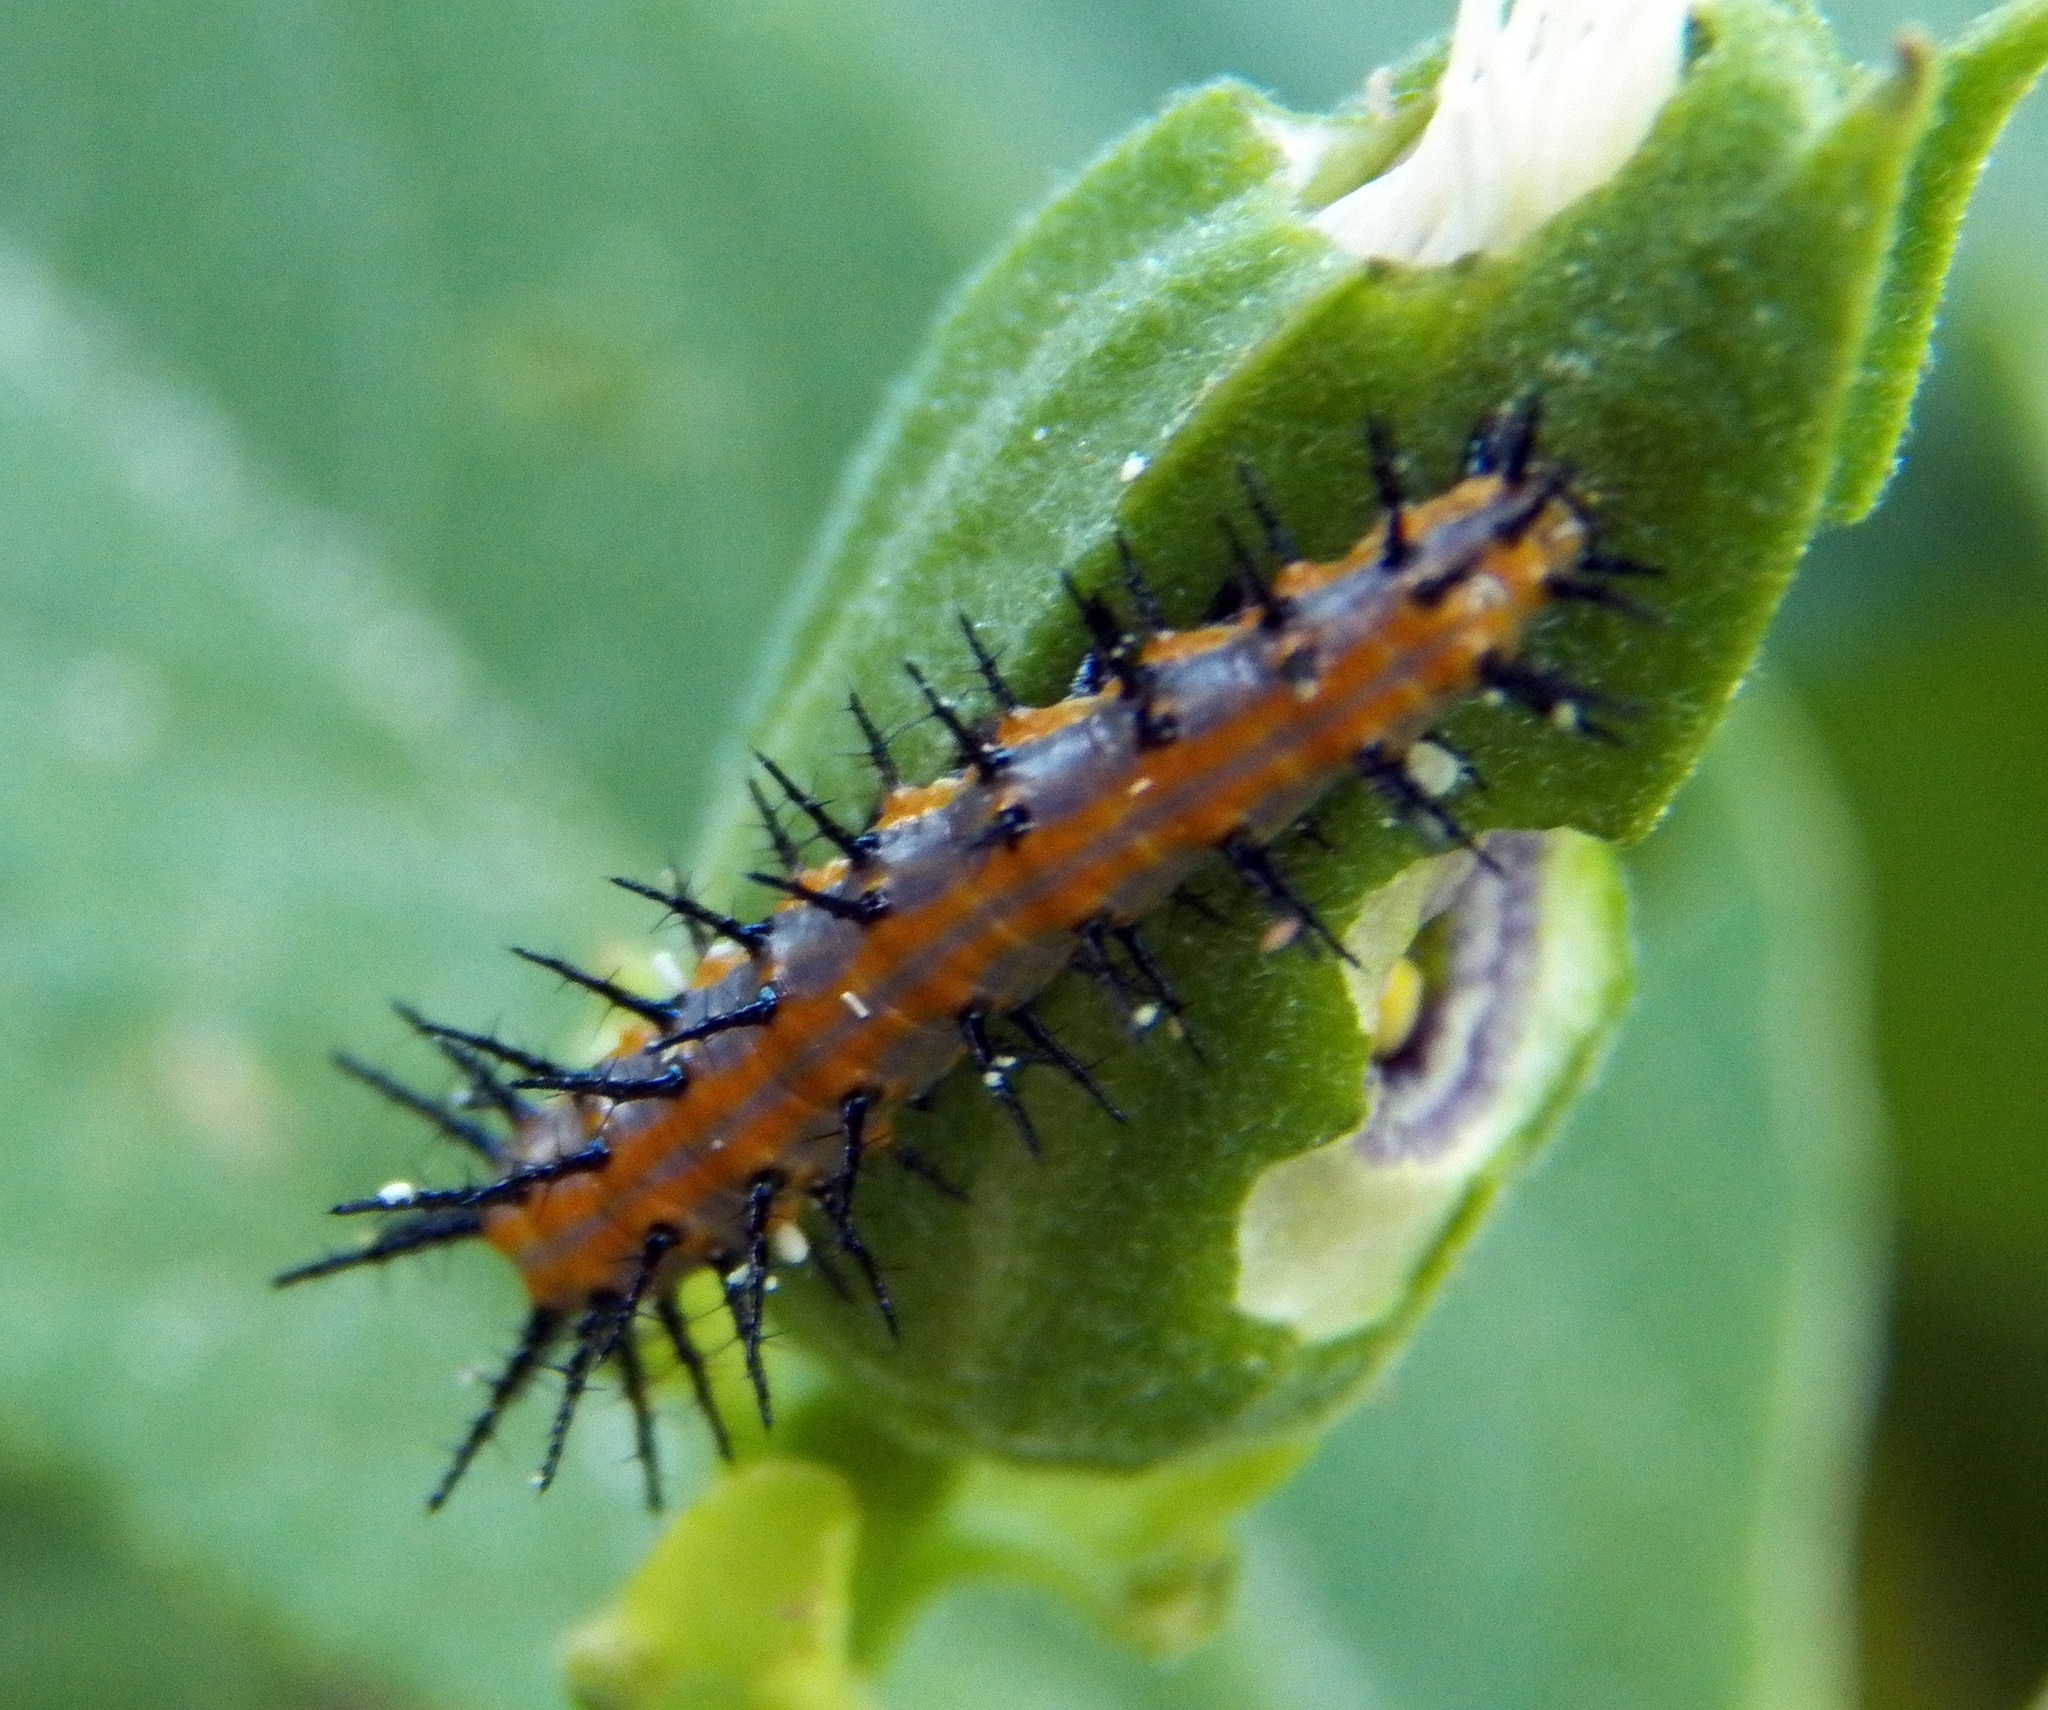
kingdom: Animalia
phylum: Arthropoda
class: Insecta
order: Lepidoptera
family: Nymphalidae
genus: Dione
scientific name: Dione vanillae
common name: Gulf fritillary
